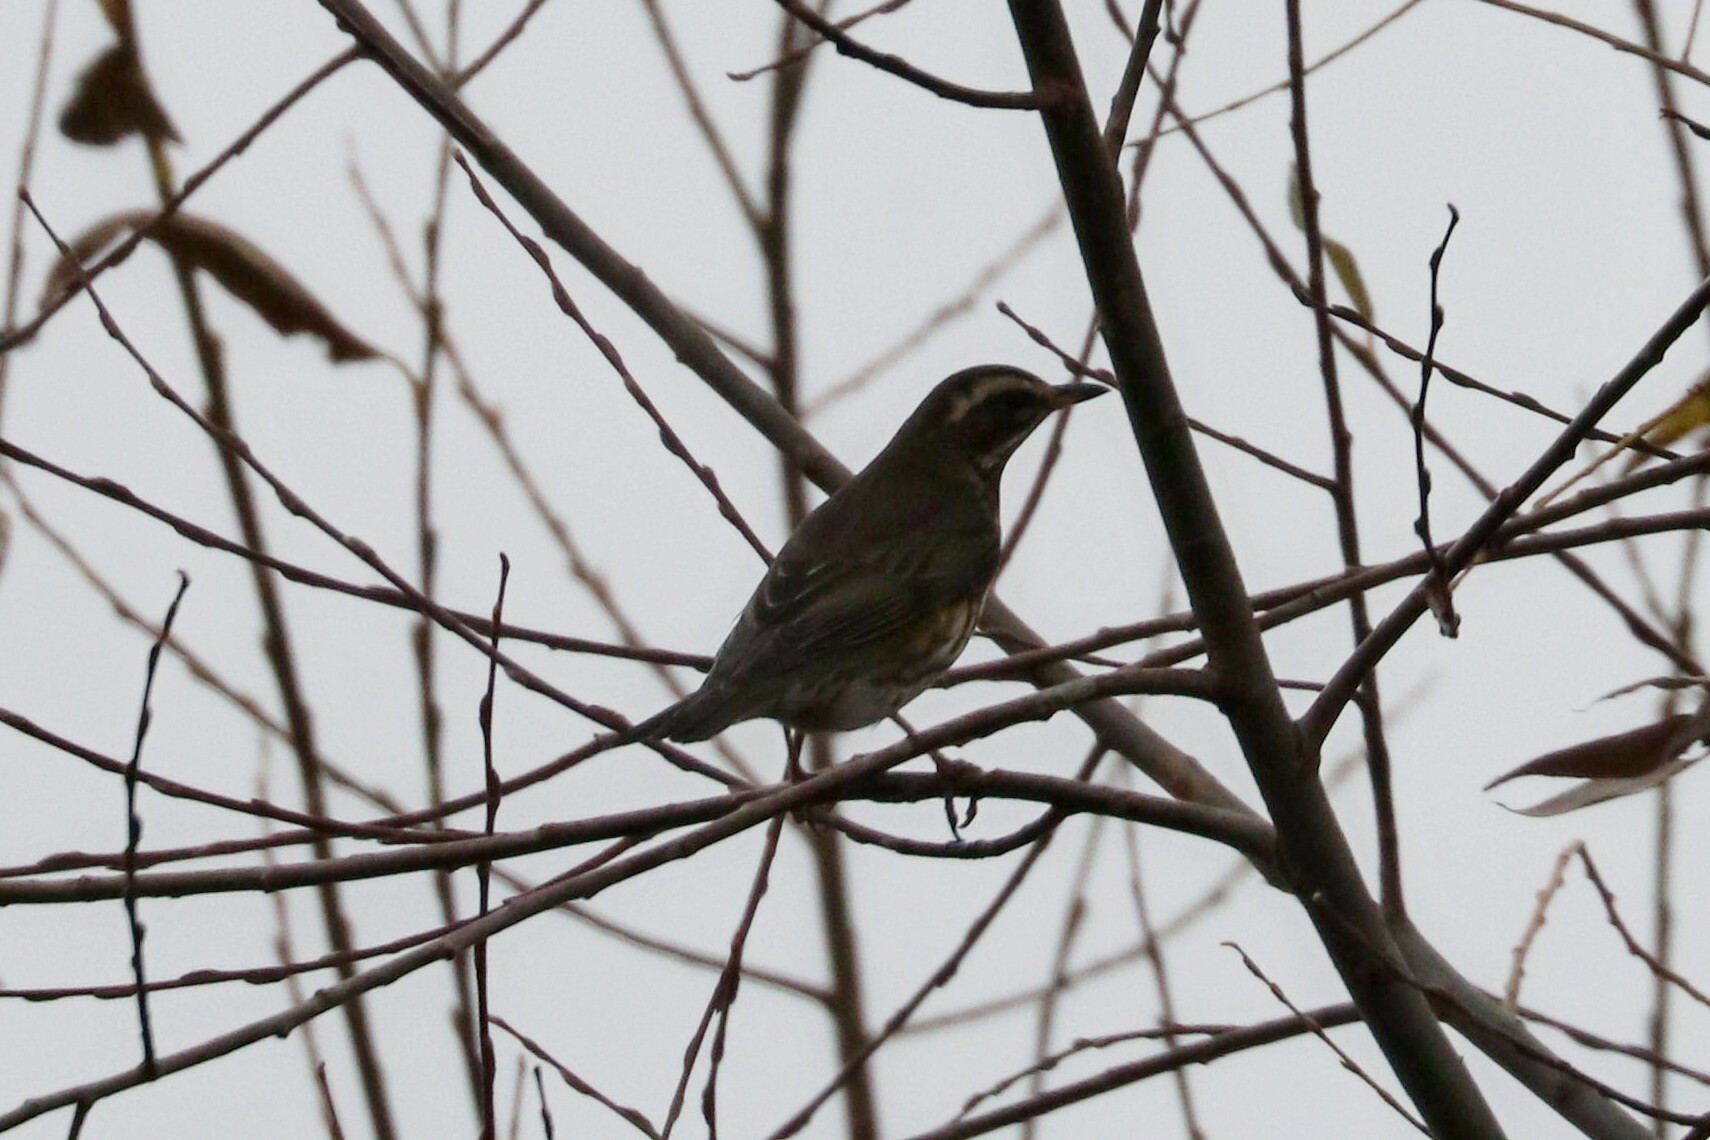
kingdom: Animalia
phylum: Chordata
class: Aves
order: Passeriformes
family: Turdidae
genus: Turdus
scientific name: Turdus iliacus
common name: Redwing
